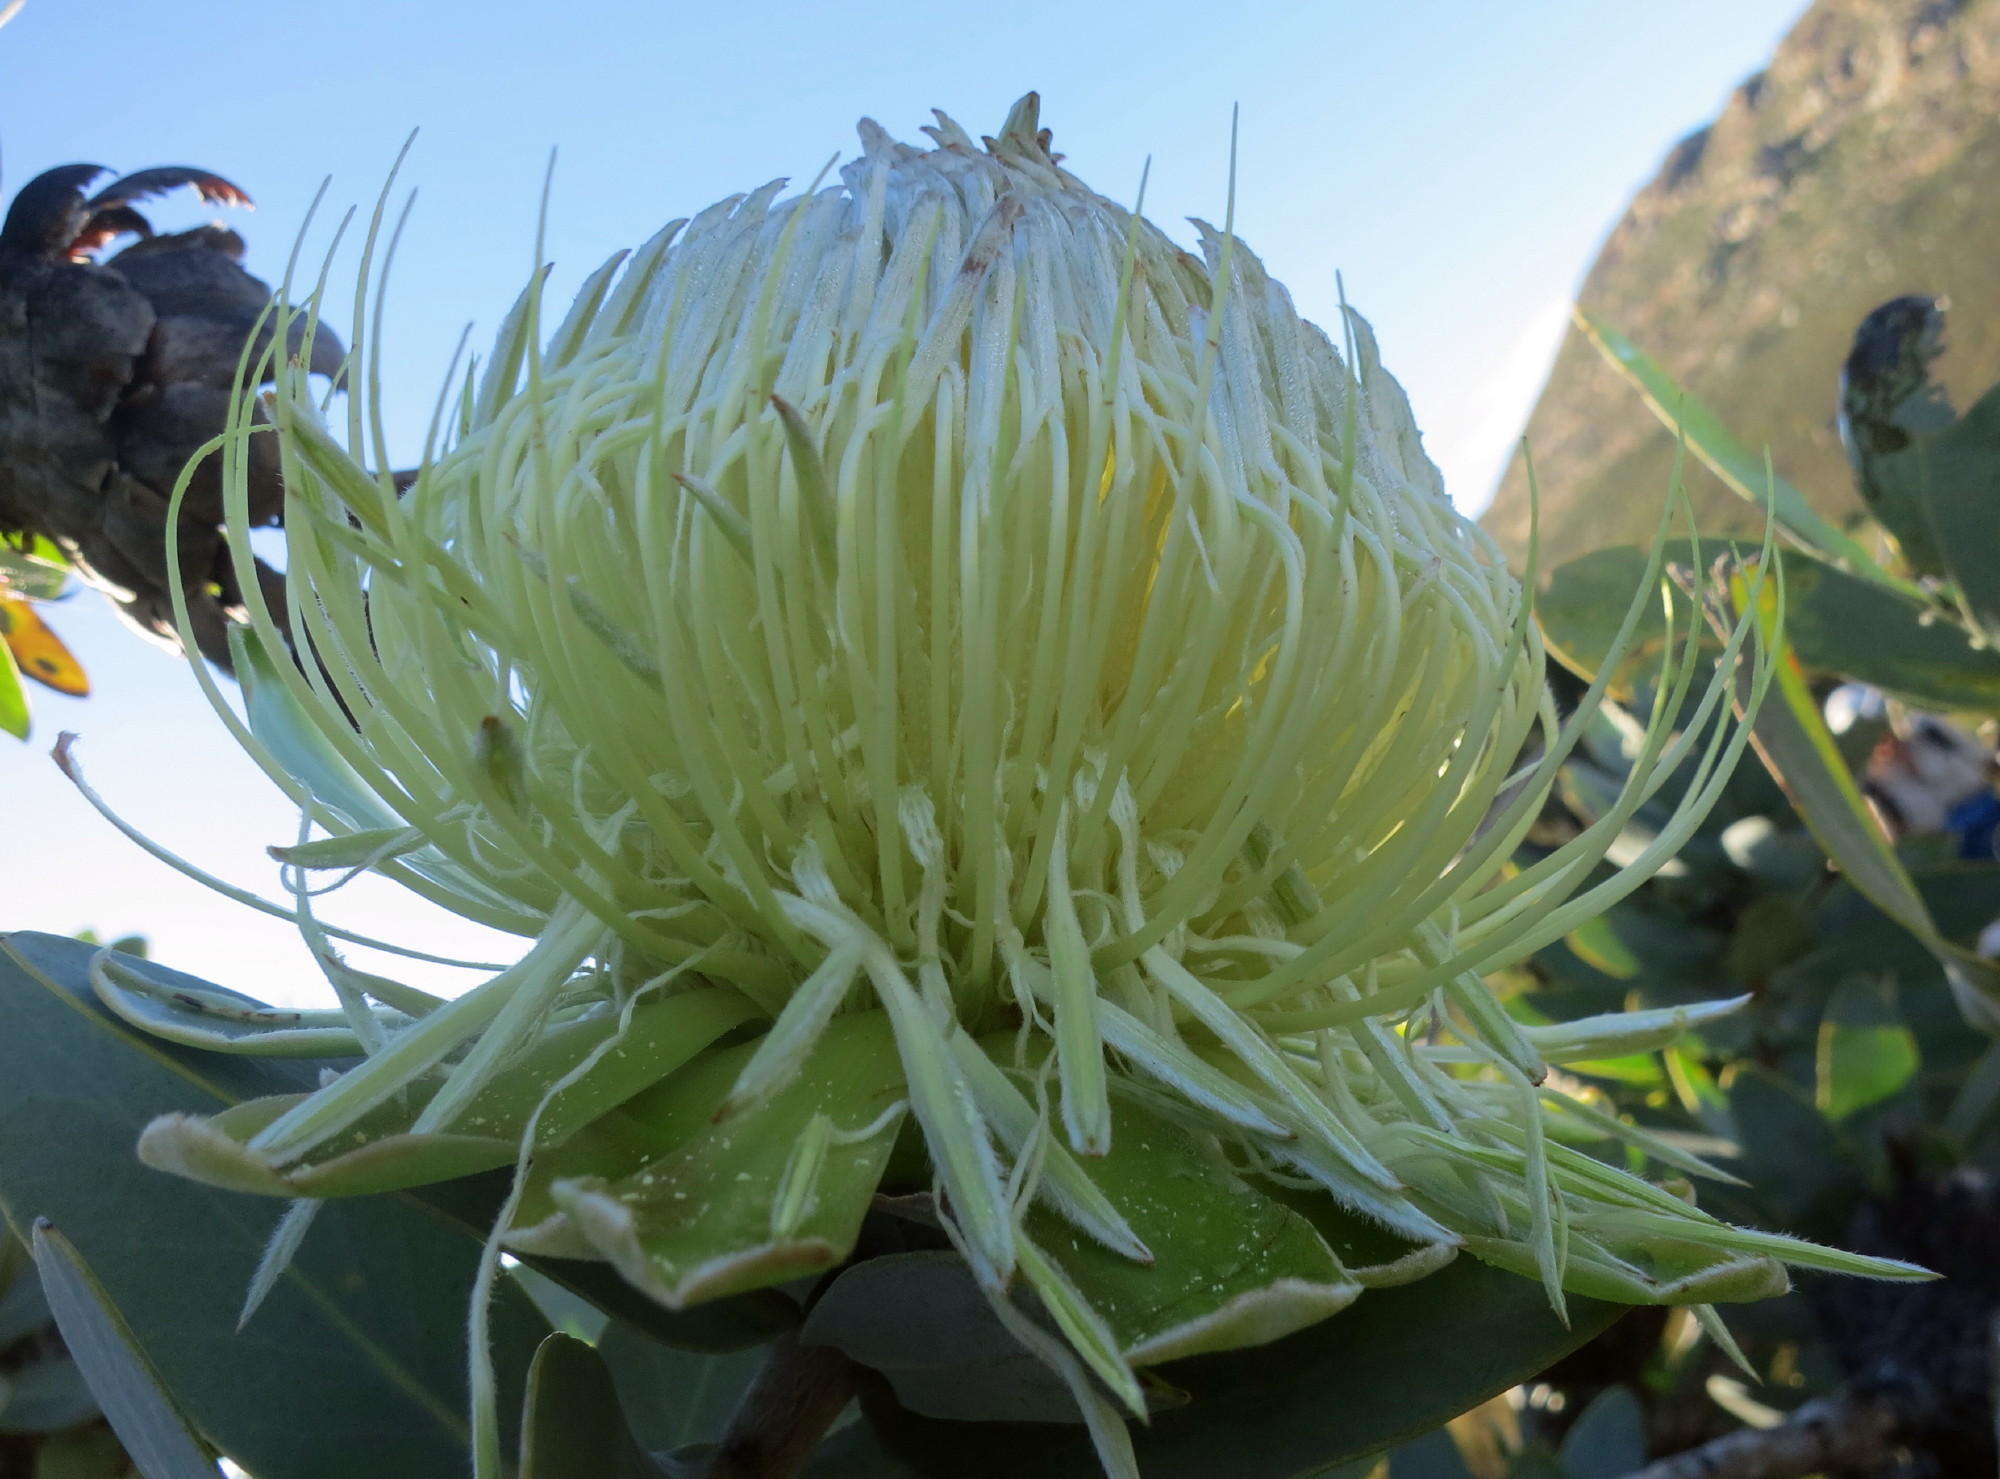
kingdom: Plantae
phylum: Tracheophyta
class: Magnoliopsida
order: Proteales
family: Proteaceae
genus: Protea
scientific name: Protea nitida
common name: Tree protea
